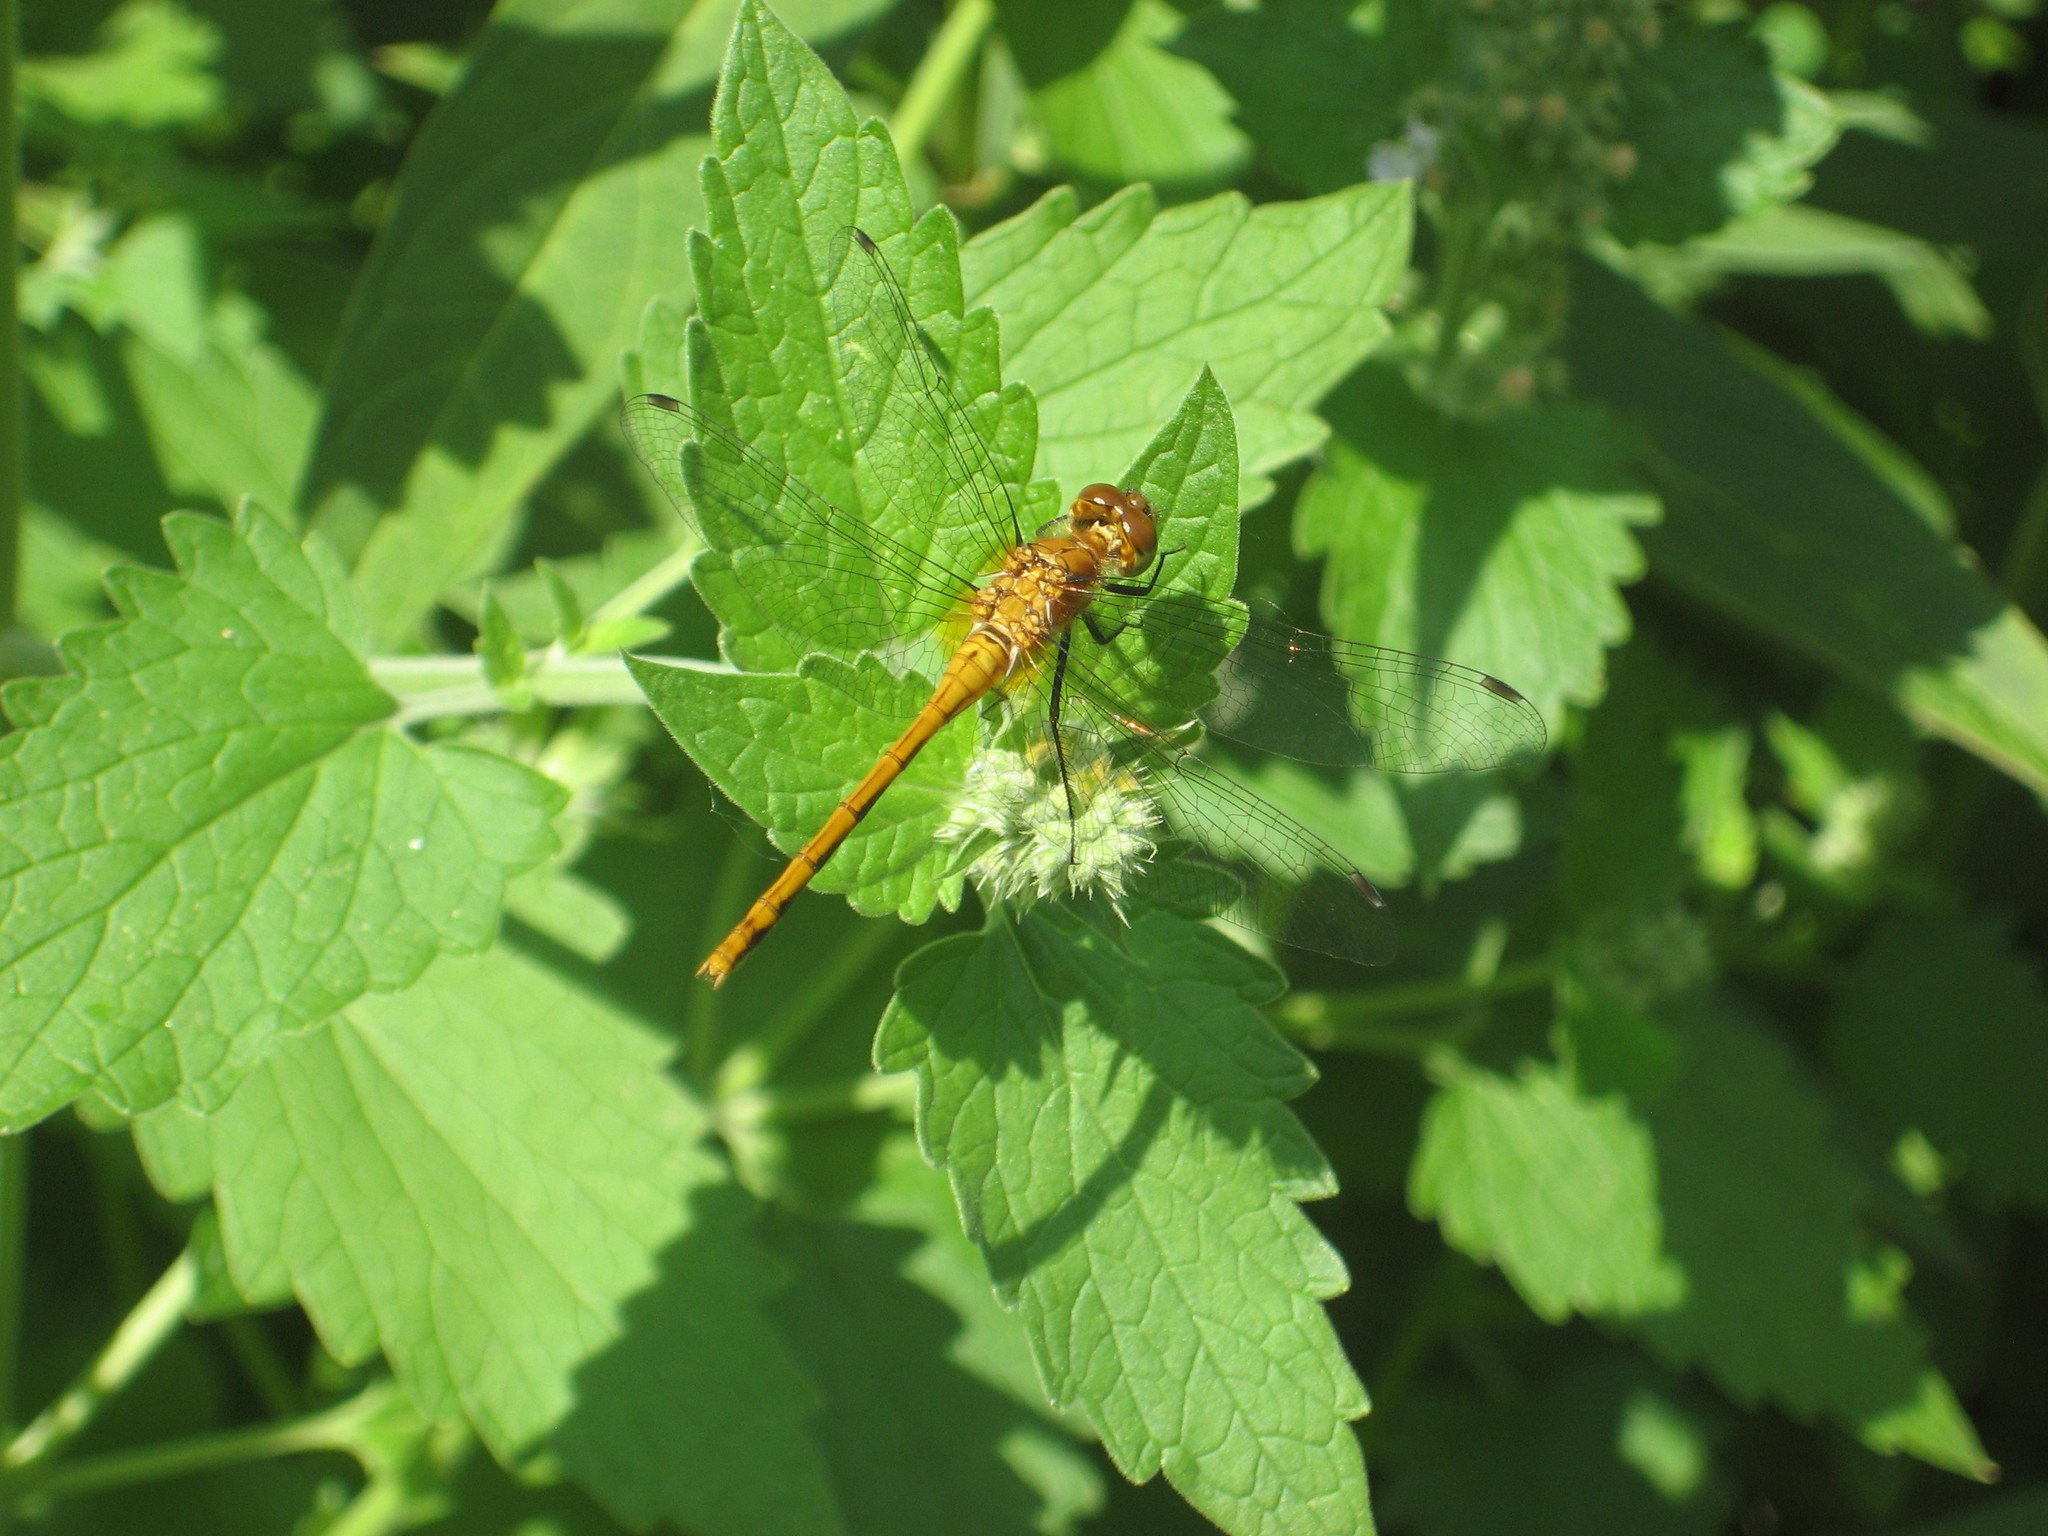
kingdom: Animalia
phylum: Arthropoda
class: Insecta
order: Odonata
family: Libellulidae
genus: Sympetrum
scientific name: Sympetrum
